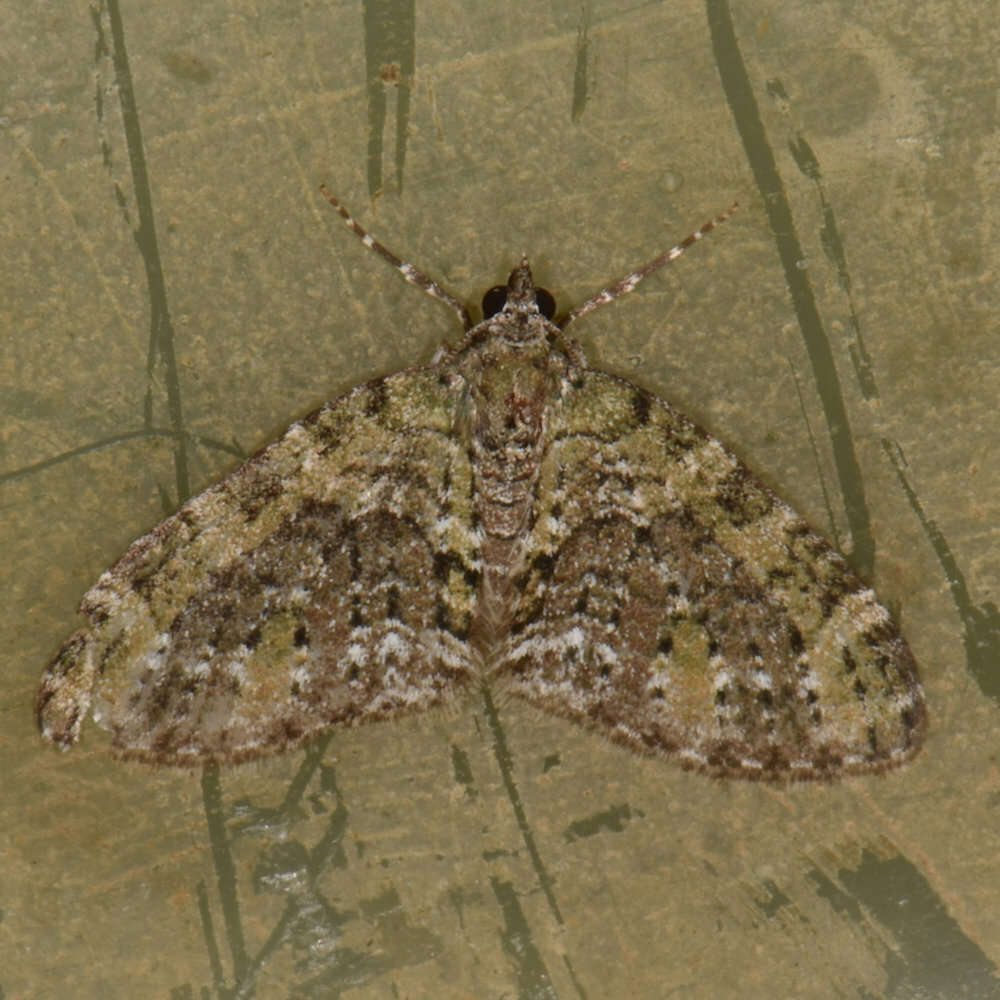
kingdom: Animalia
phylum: Arthropoda
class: Insecta
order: Lepidoptera
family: Geometridae
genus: Acasis
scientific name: Acasis viridata
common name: Olive-and-black carpet moth
